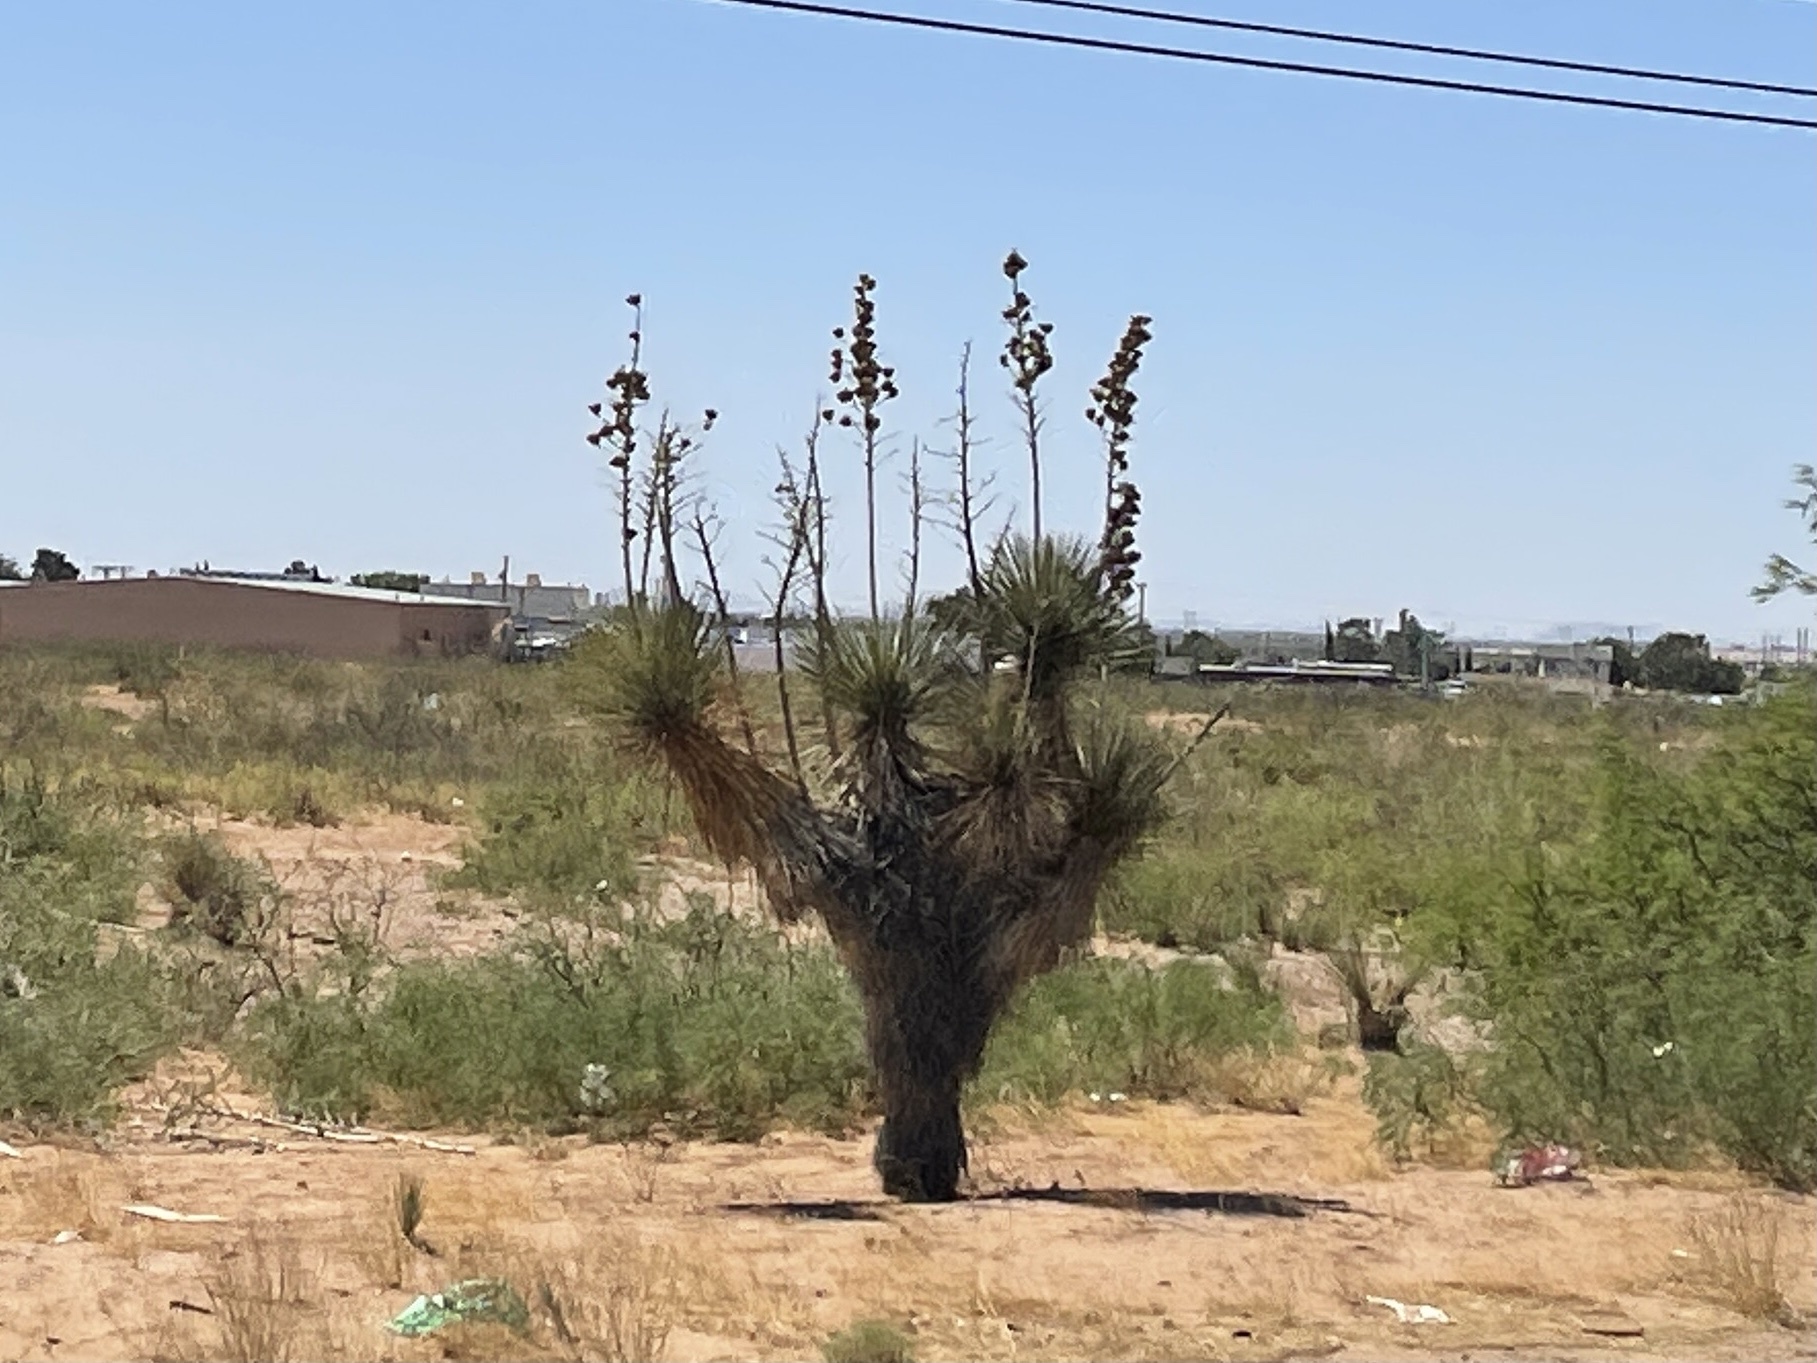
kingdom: Plantae
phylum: Tracheophyta
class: Liliopsida
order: Asparagales
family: Asparagaceae
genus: Yucca
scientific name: Yucca elata
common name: Palmella
